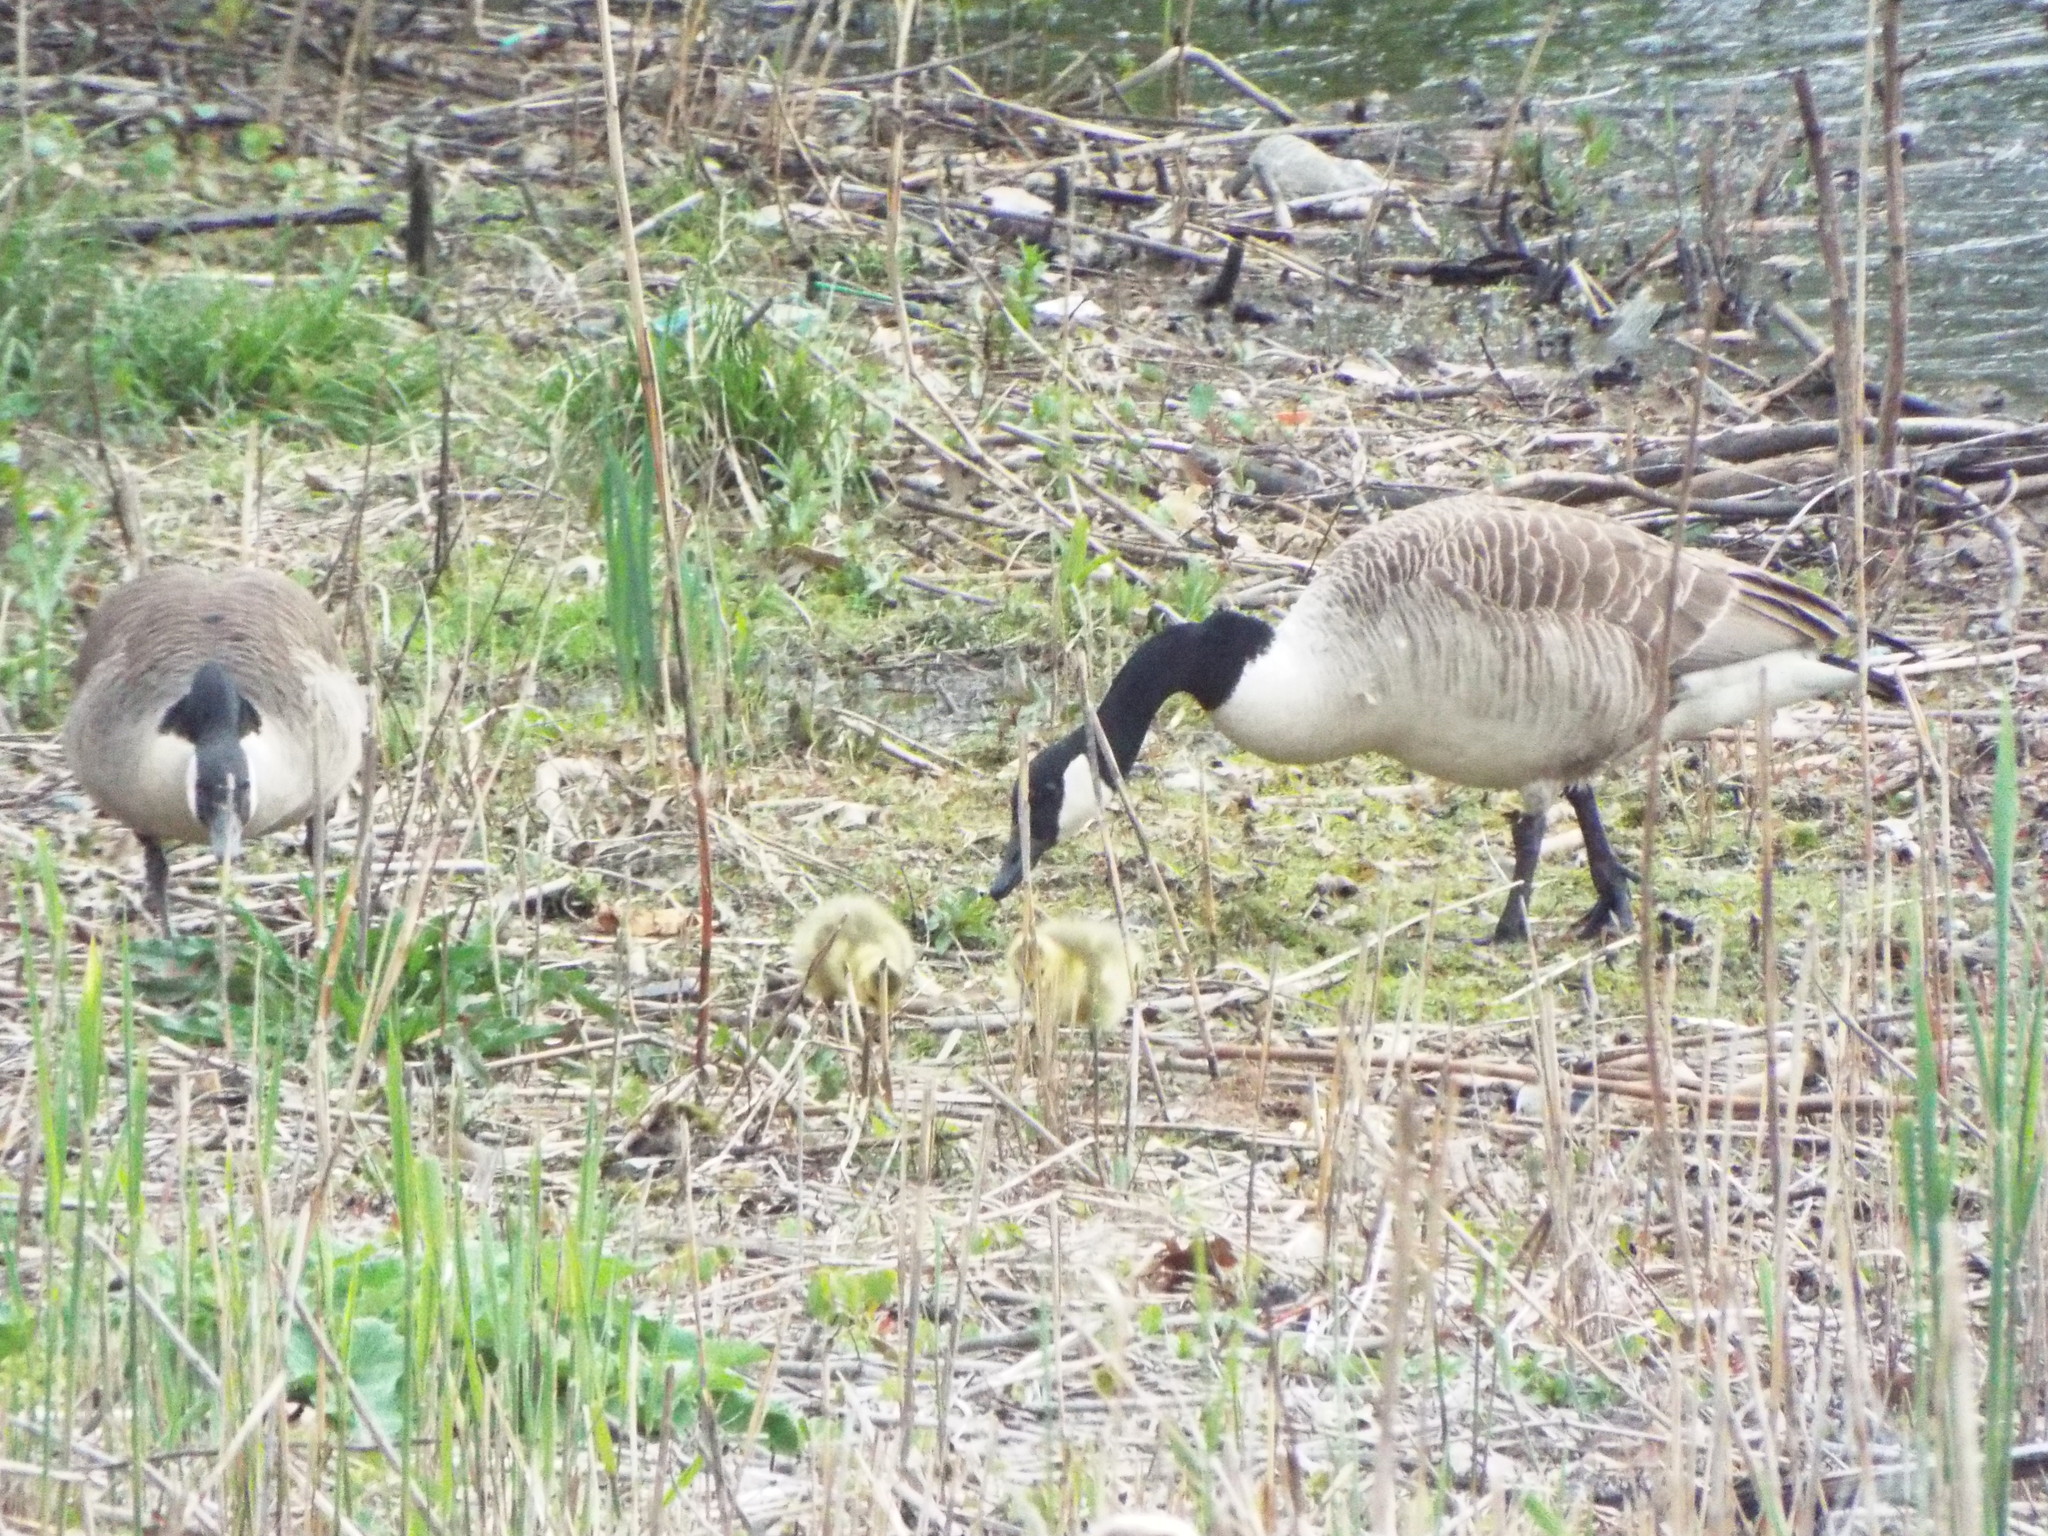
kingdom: Animalia
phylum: Chordata
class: Aves
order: Anseriformes
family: Anatidae
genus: Branta
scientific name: Branta canadensis
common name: Canada goose
